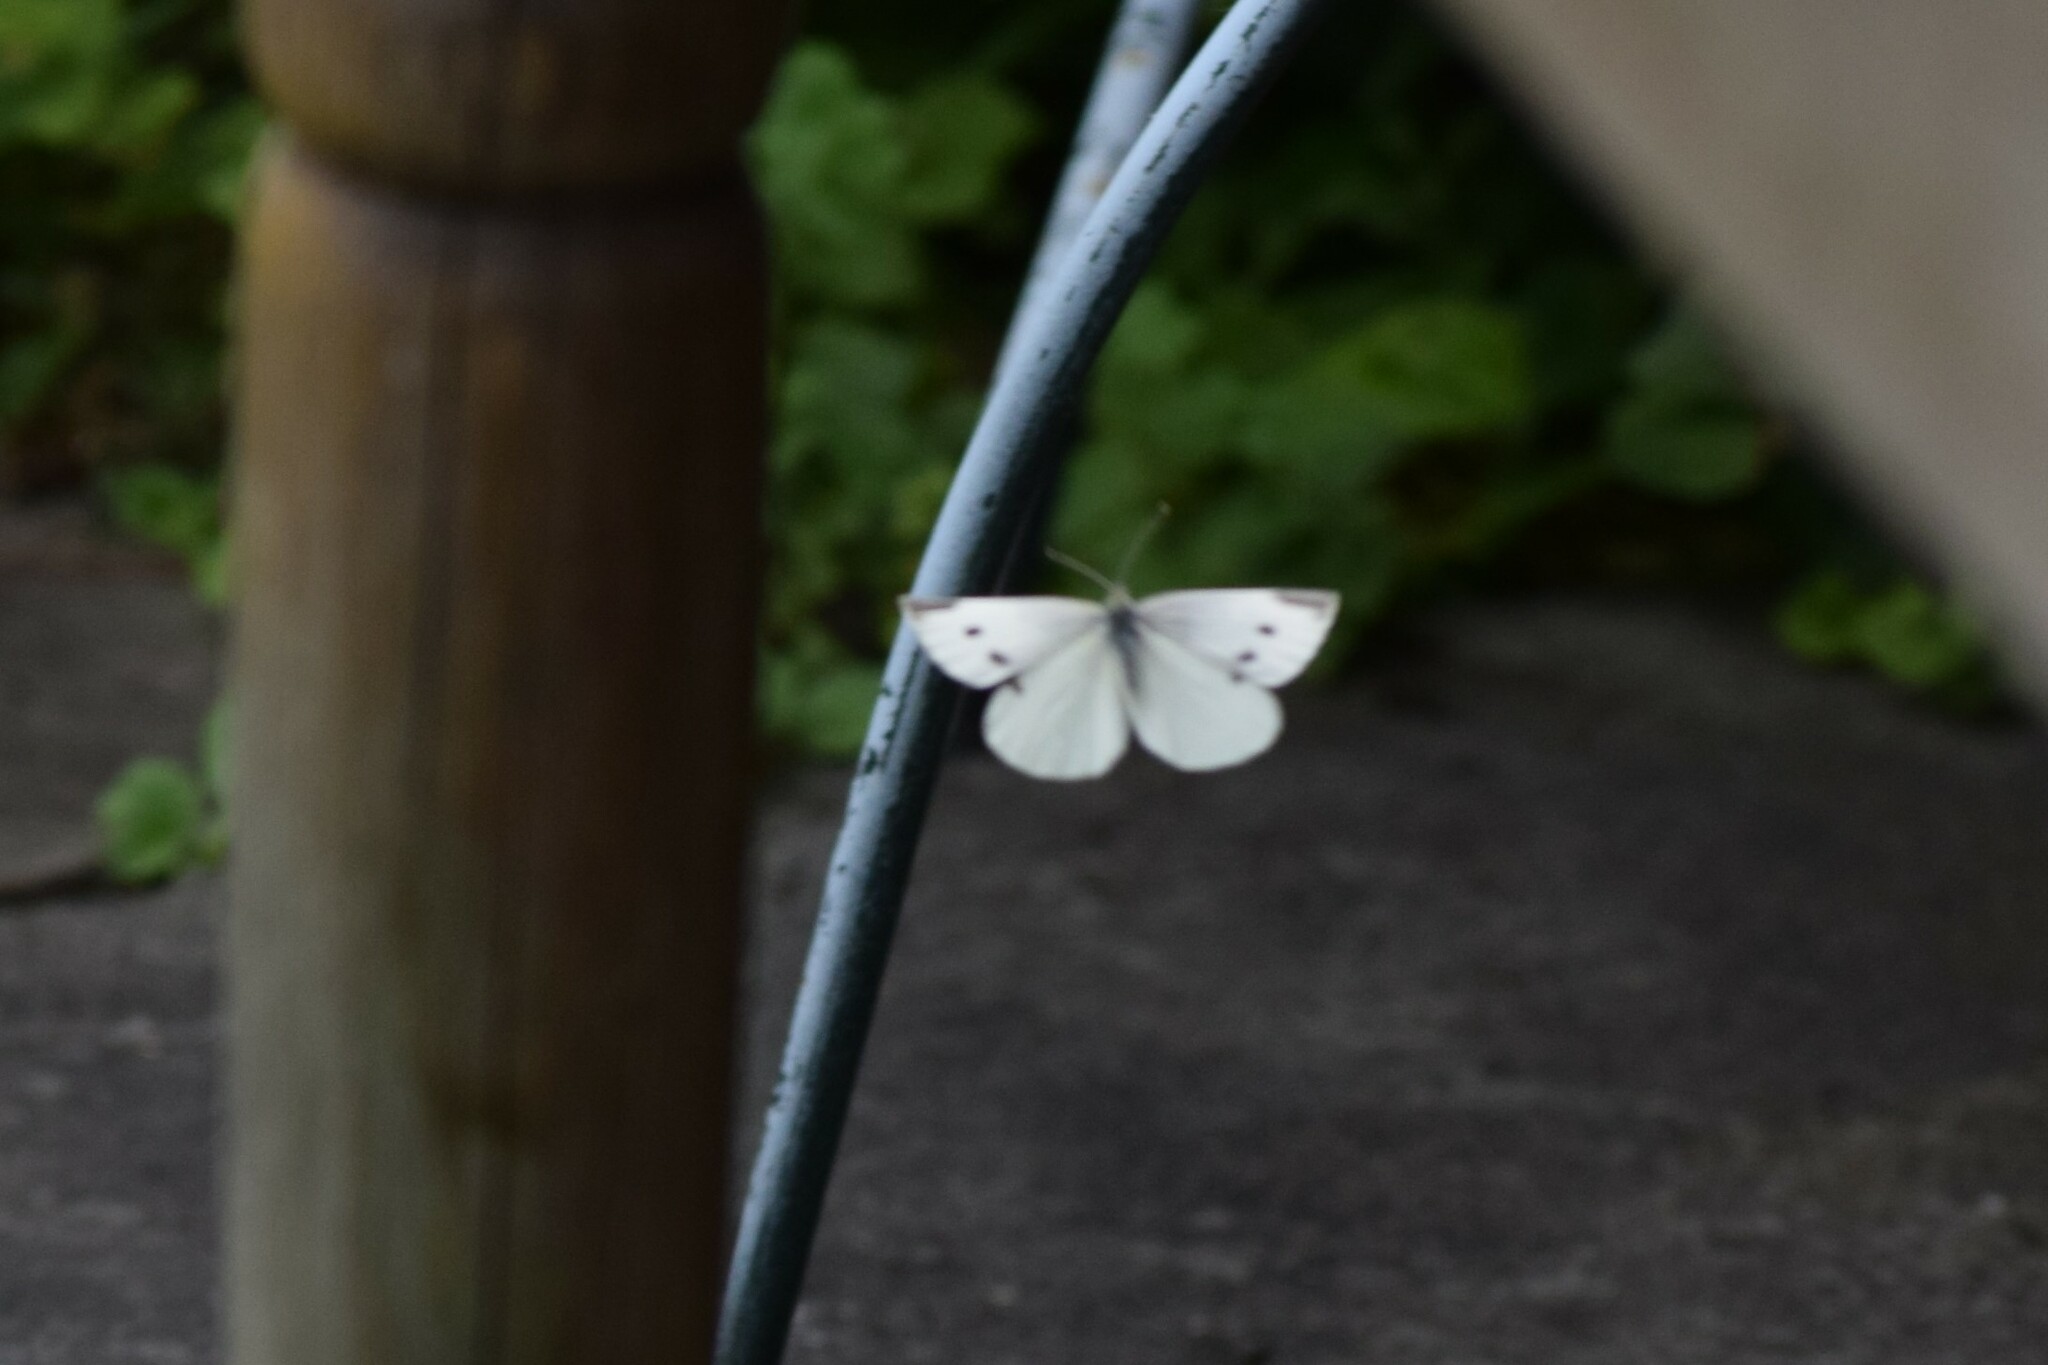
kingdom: Animalia
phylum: Arthropoda
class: Insecta
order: Lepidoptera
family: Pieridae
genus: Pieris
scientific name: Pieris rapae
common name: Small white
